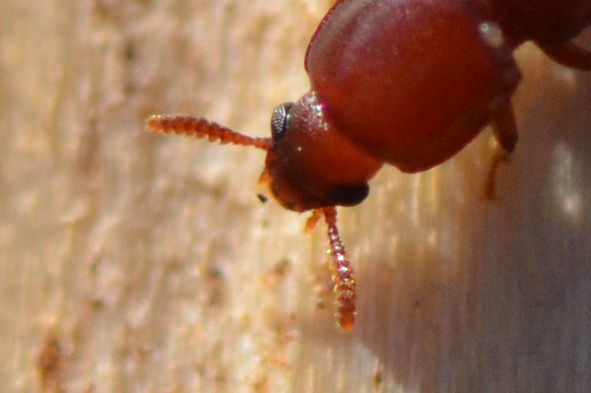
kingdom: Animalia
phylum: Arthropoda
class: Insecta
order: Coleoptera
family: Tenebrionidae
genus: Corticeus
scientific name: Corticeus fraxini
